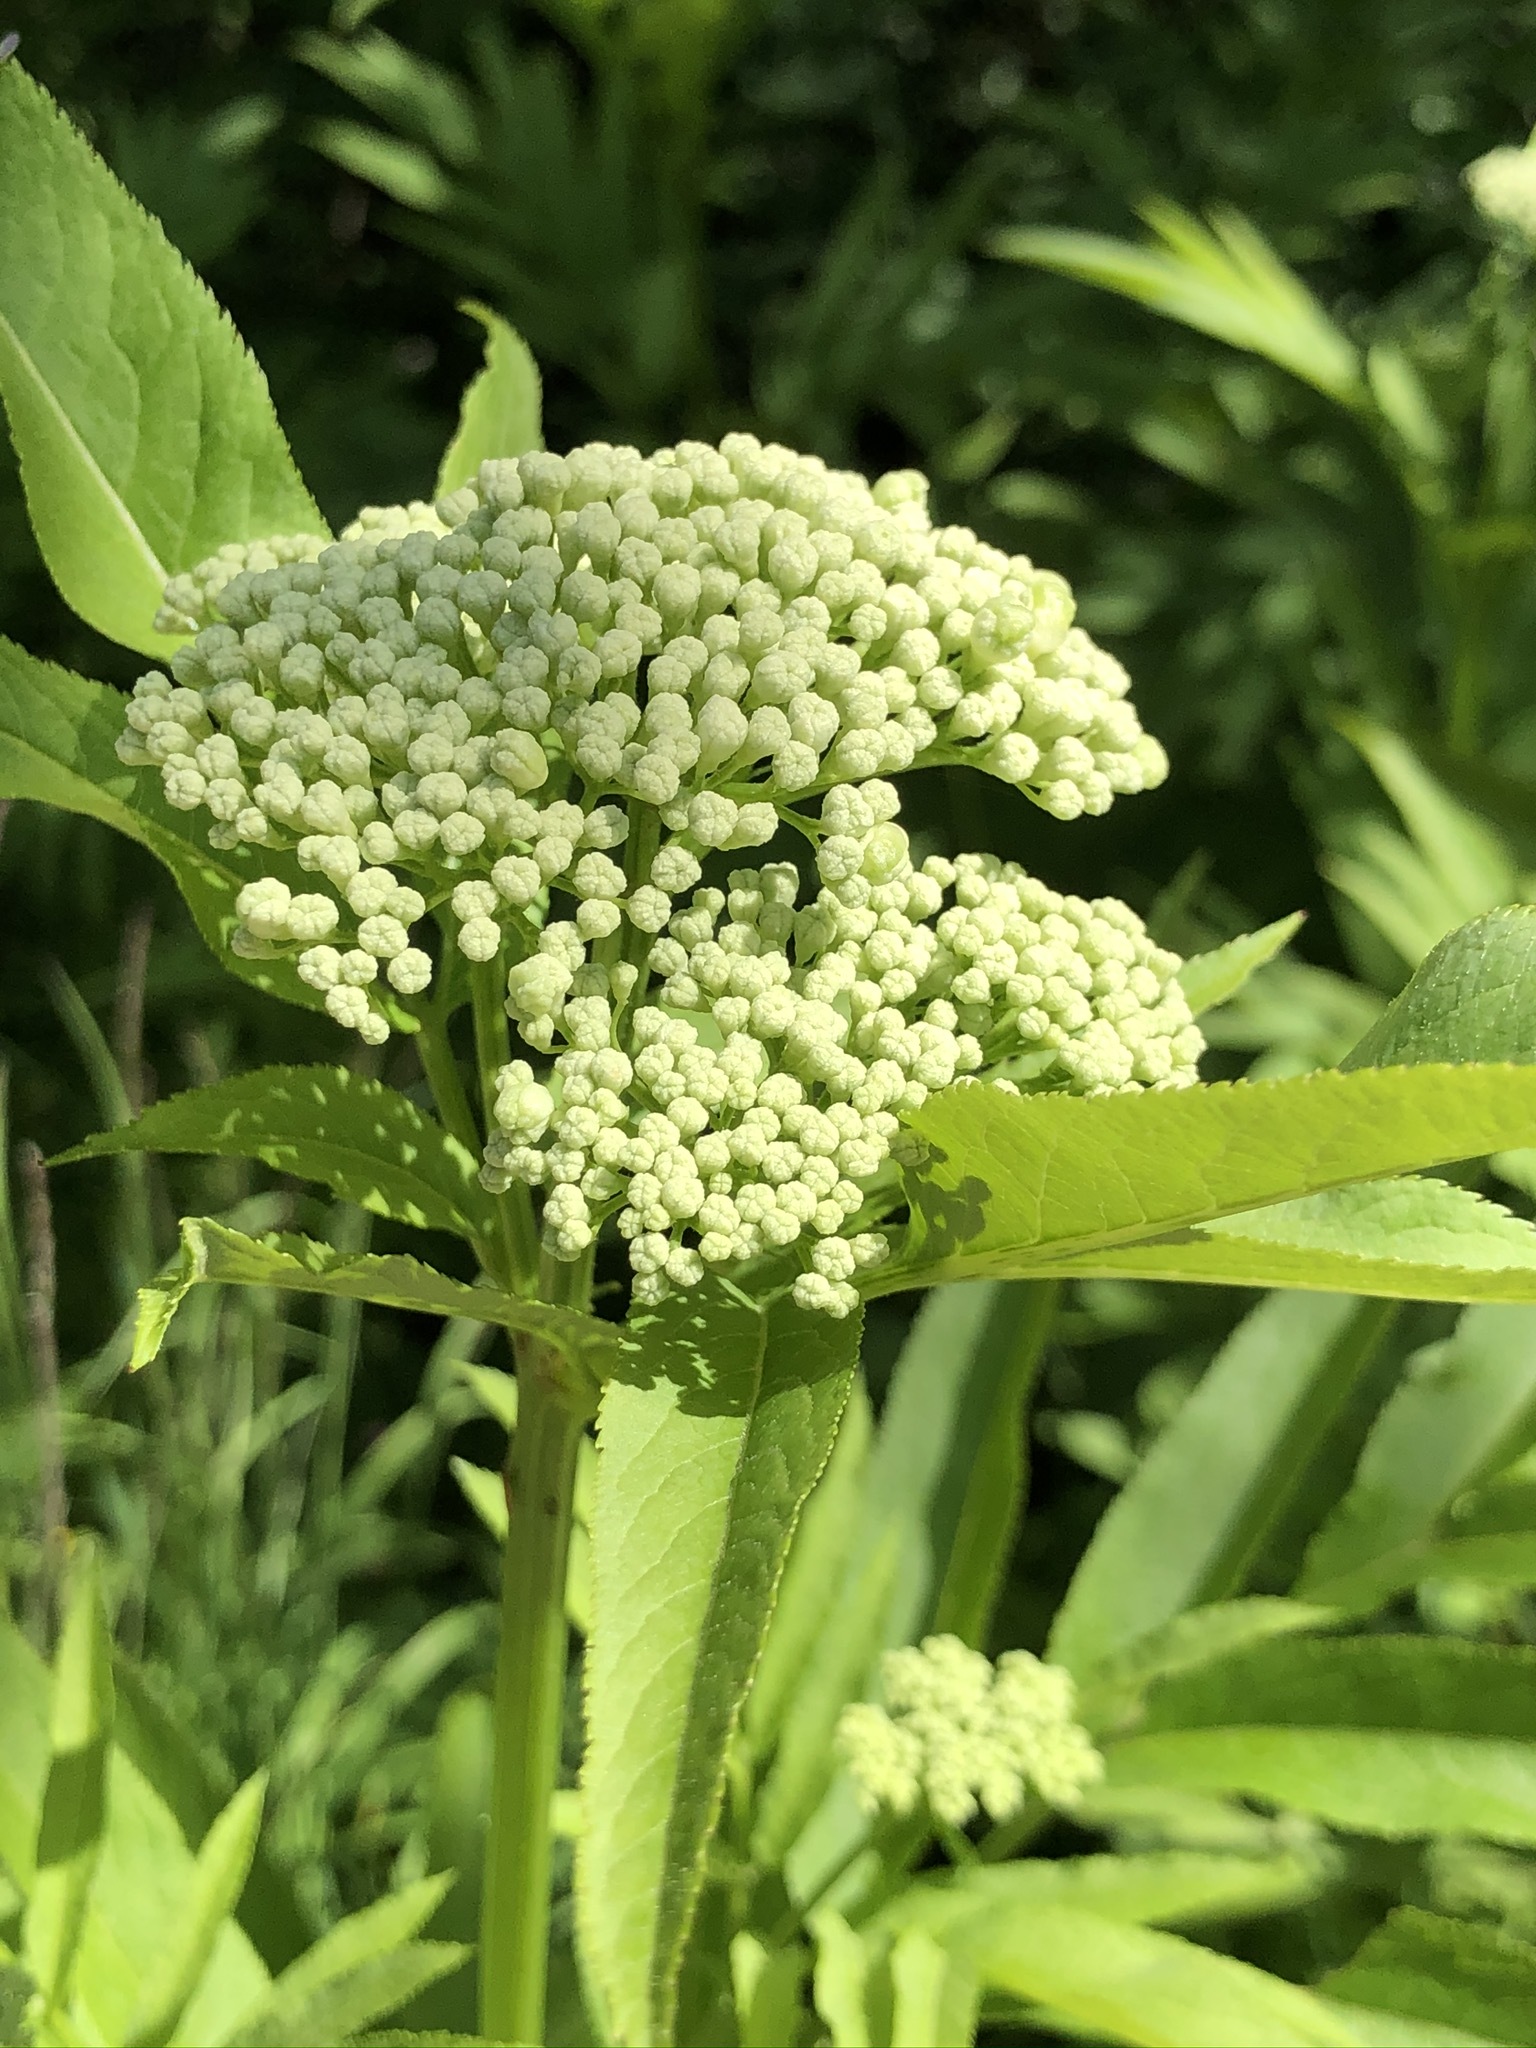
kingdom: Plantae
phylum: Tracheophyta
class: Magnoliopsida
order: Dipsacales
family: Viburnaceae
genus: Sambucus
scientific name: Sambucus ebulus
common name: Dwarf elder
